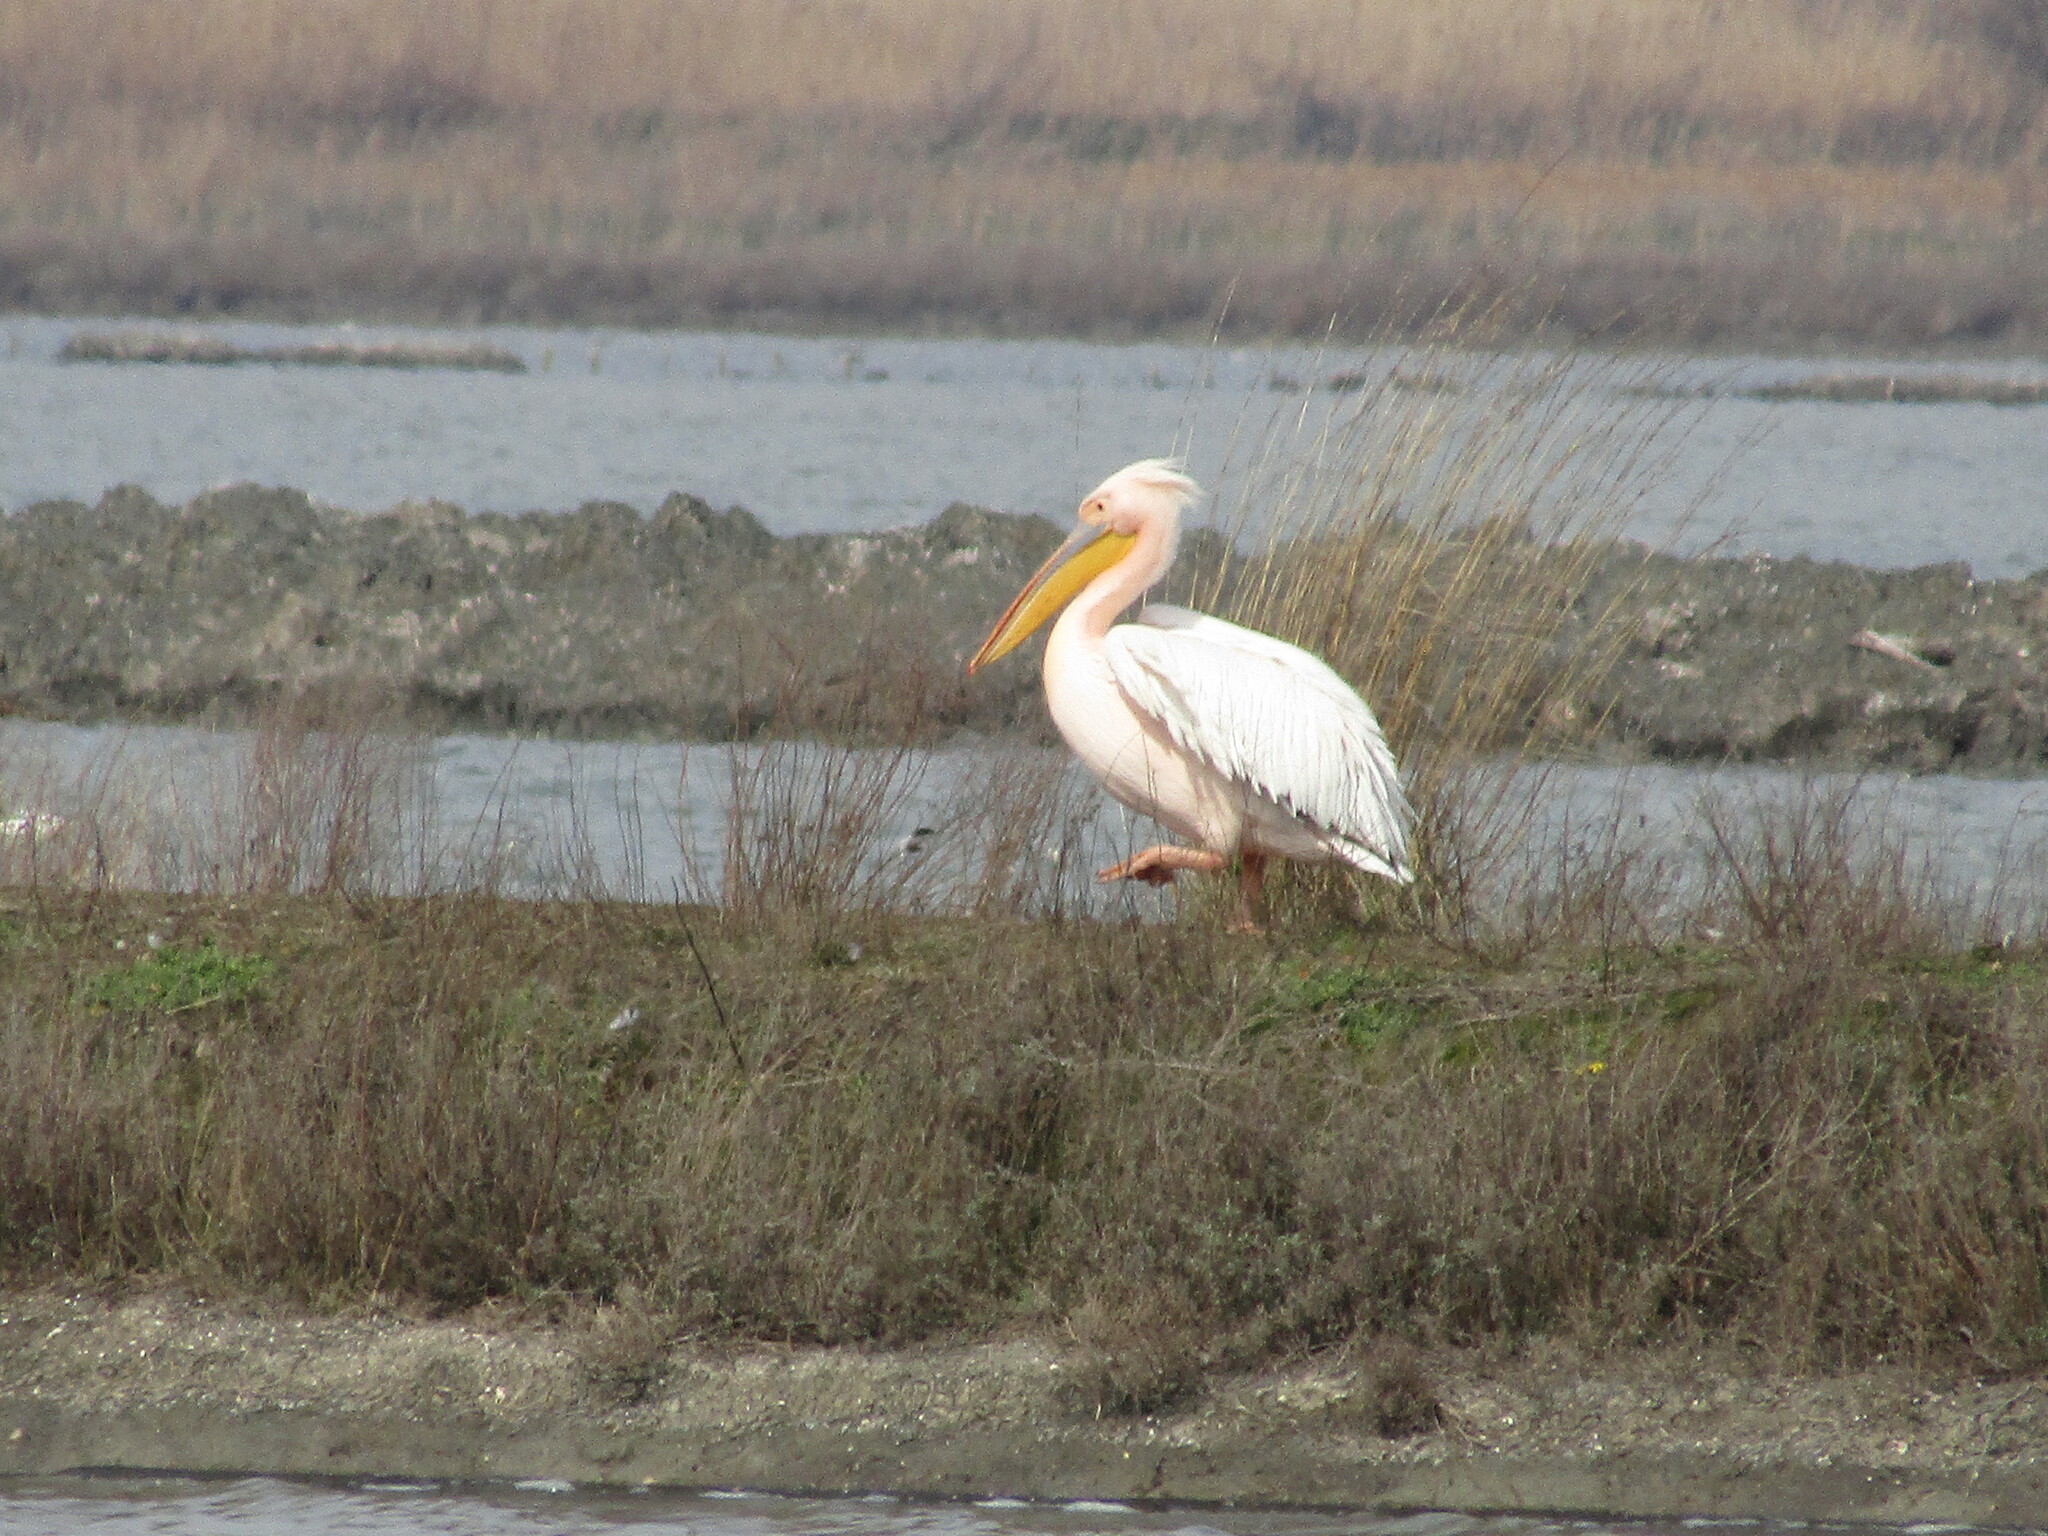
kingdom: Animalia
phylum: Chordata
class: Aves
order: Pelecaniformes
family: Pelecanidae
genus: Pelecanus
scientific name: Pelecanus onocrotalus
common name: Great white pelican
